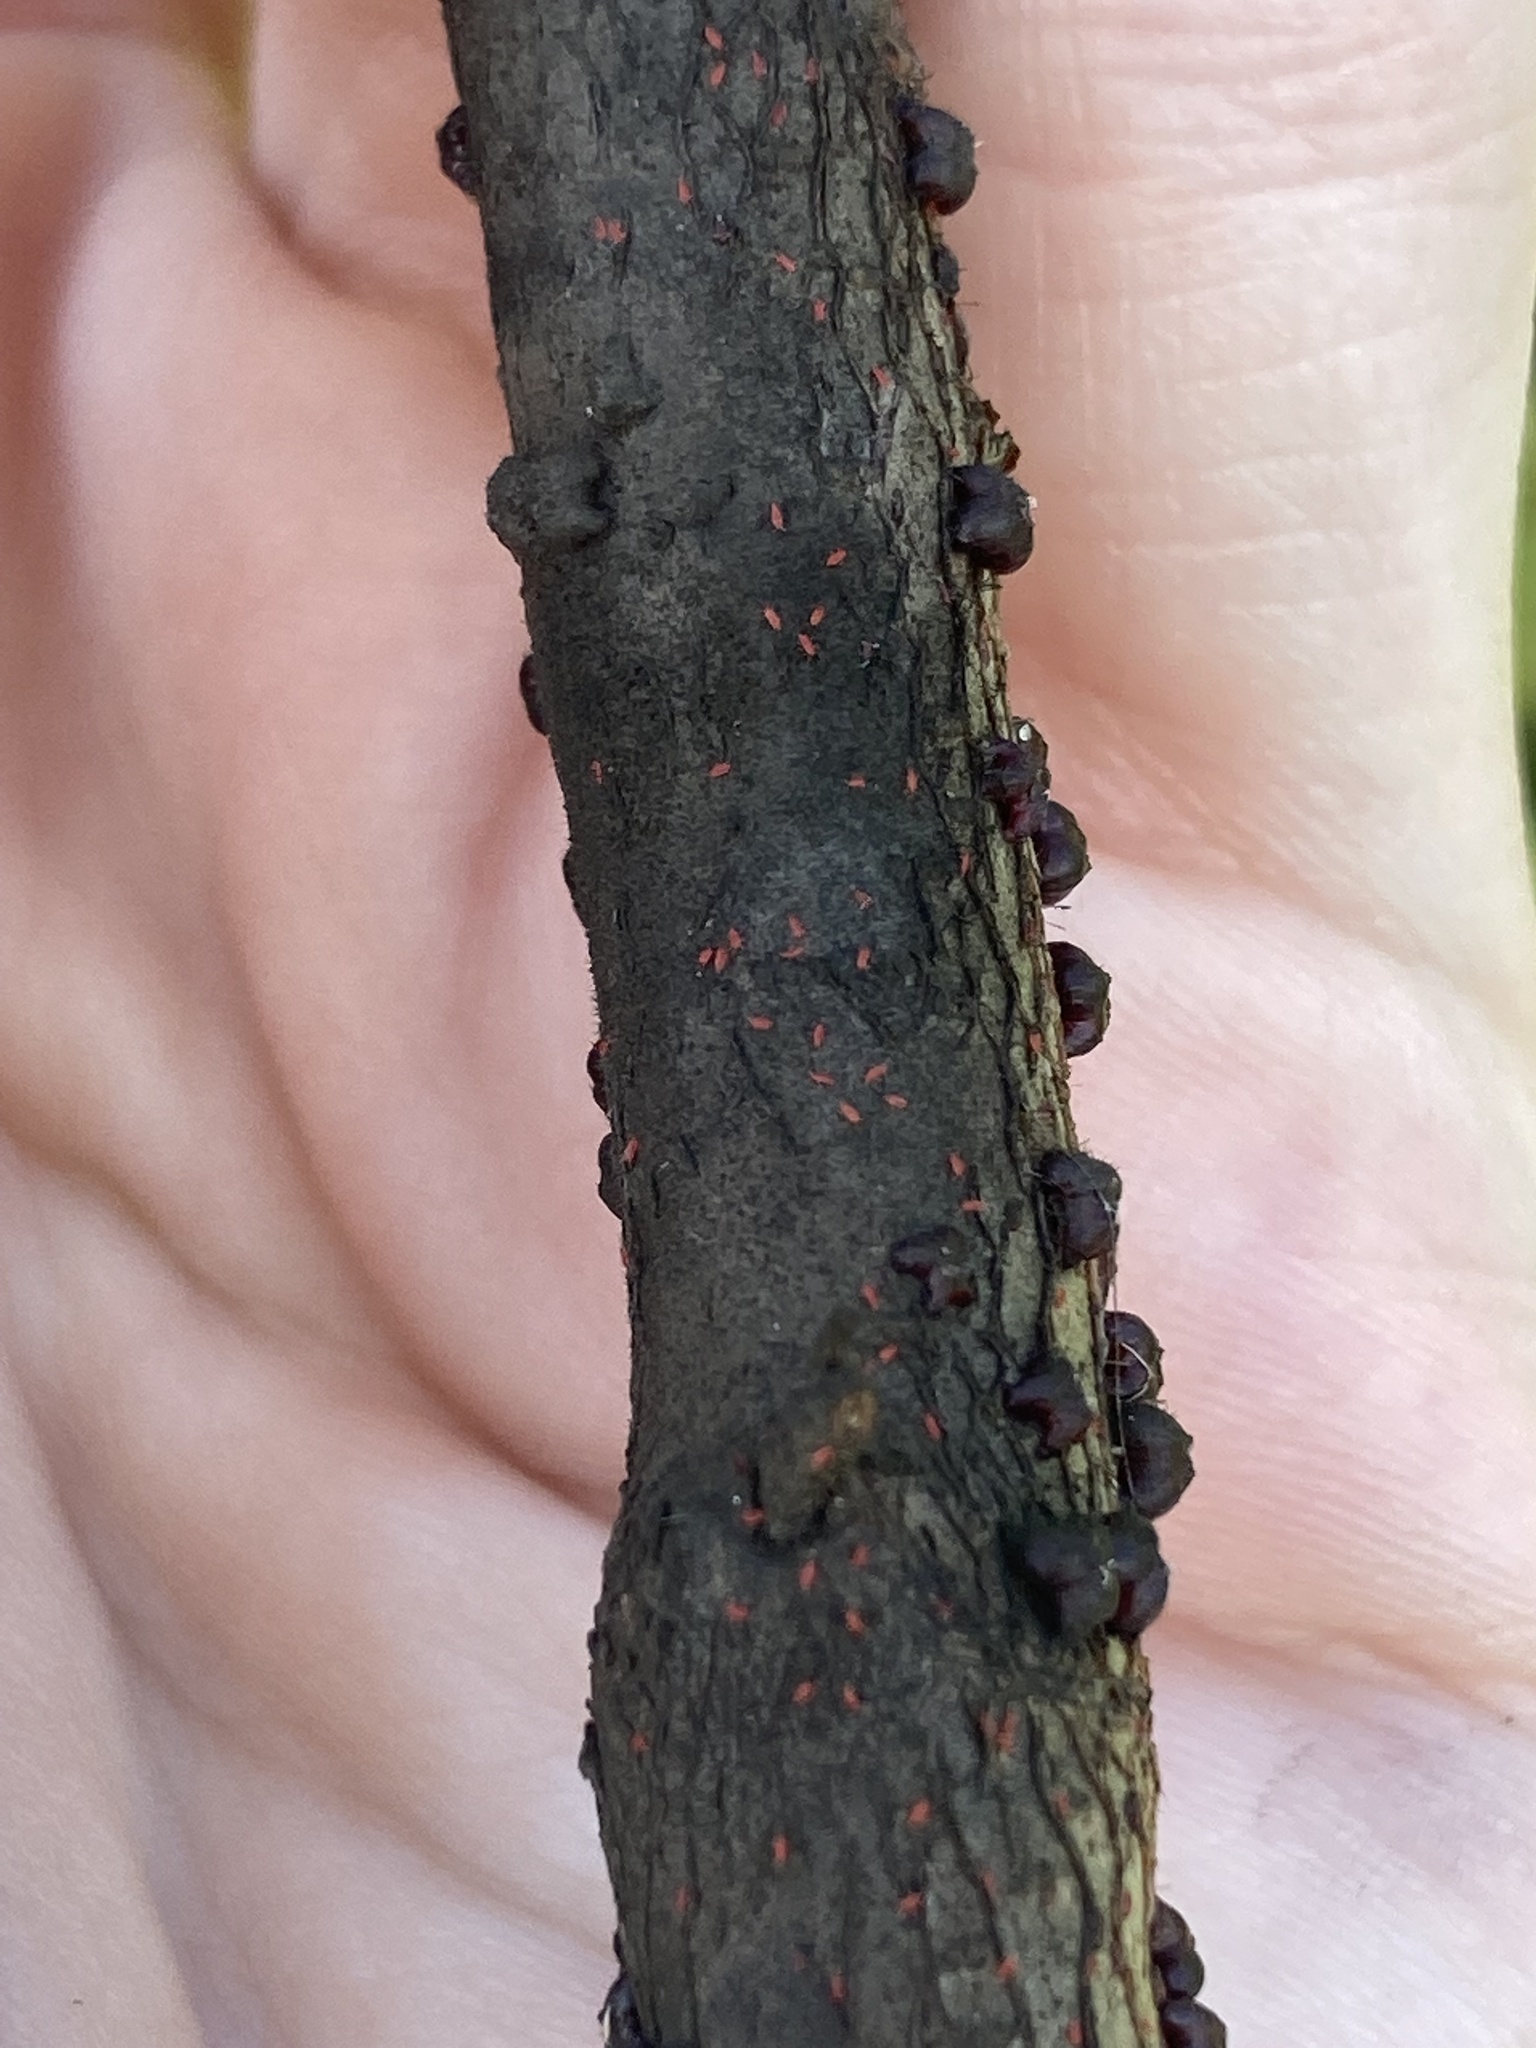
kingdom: Animalia
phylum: Arthropoda
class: Insecta
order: Hemiptera
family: Kerriidae
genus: Paratachardina
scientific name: Paratachardina pseudolobata
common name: Lobate lac scale
